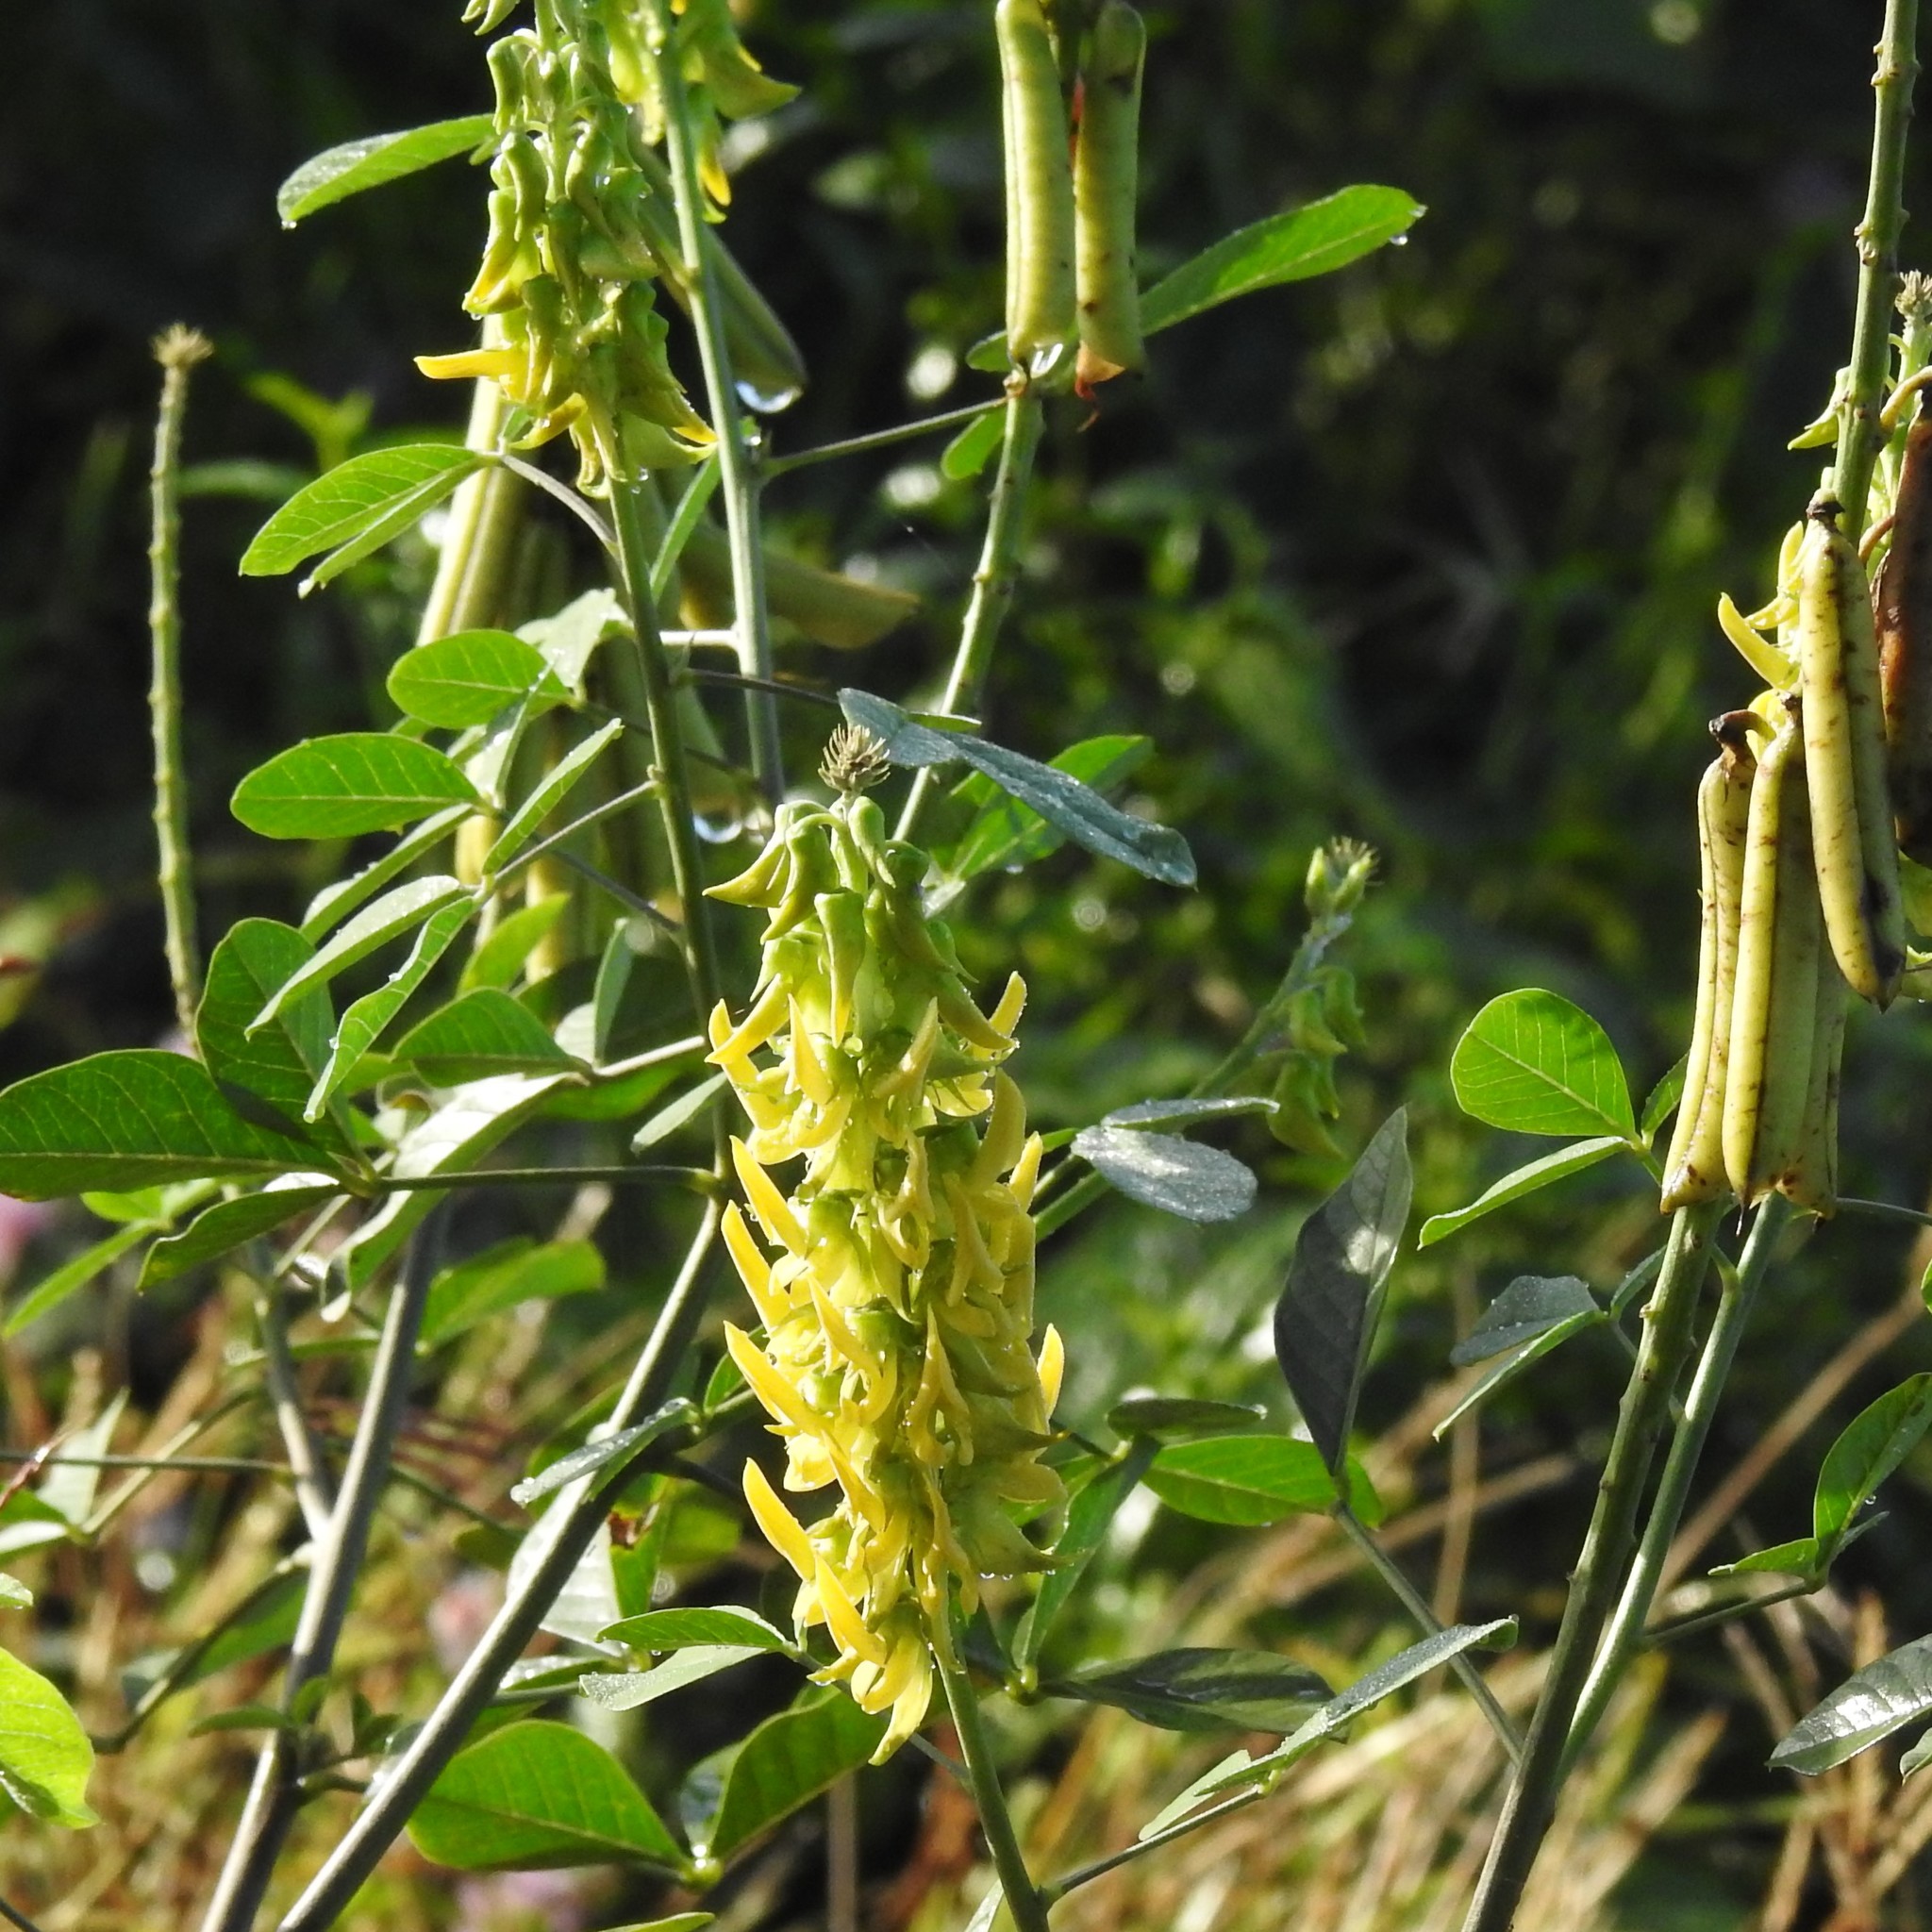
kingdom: Plantae
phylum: Tracheophyta
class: Magnoliopsida
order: Fabales
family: Fabaceae
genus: Crotalaria
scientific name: Crotalaria pallida
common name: Smooth rattlebox
